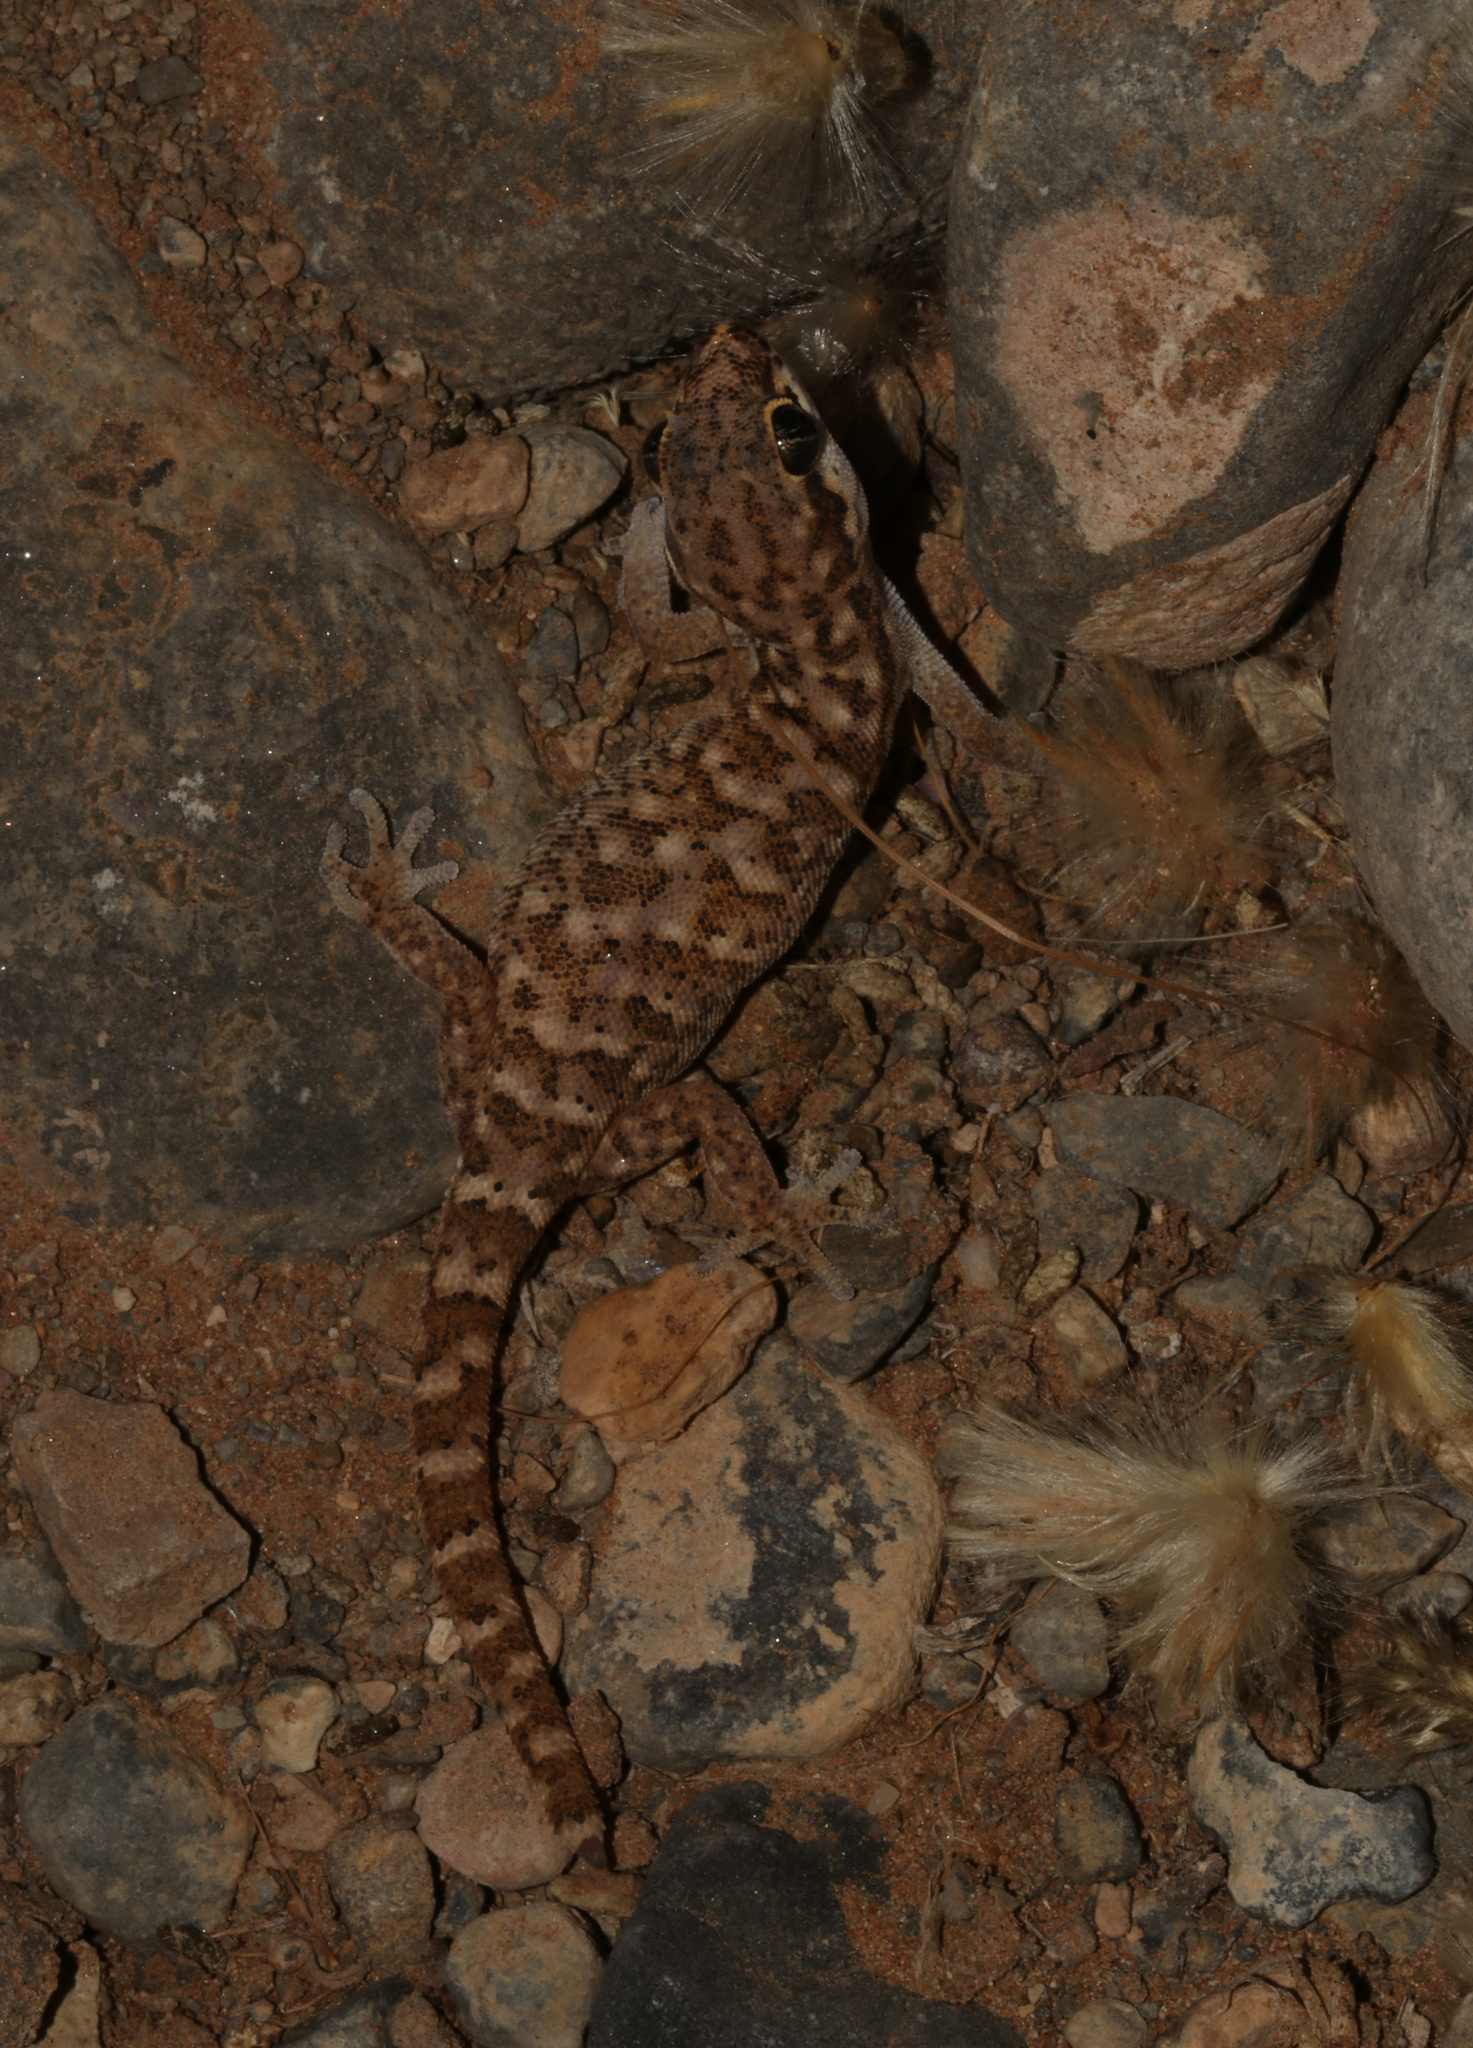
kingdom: Animalia
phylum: Chordata
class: Squamata
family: Gekkonidae
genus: Pachydactylus
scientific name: Pachydactylus punctatus
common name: Pointed thick-toed gecko
